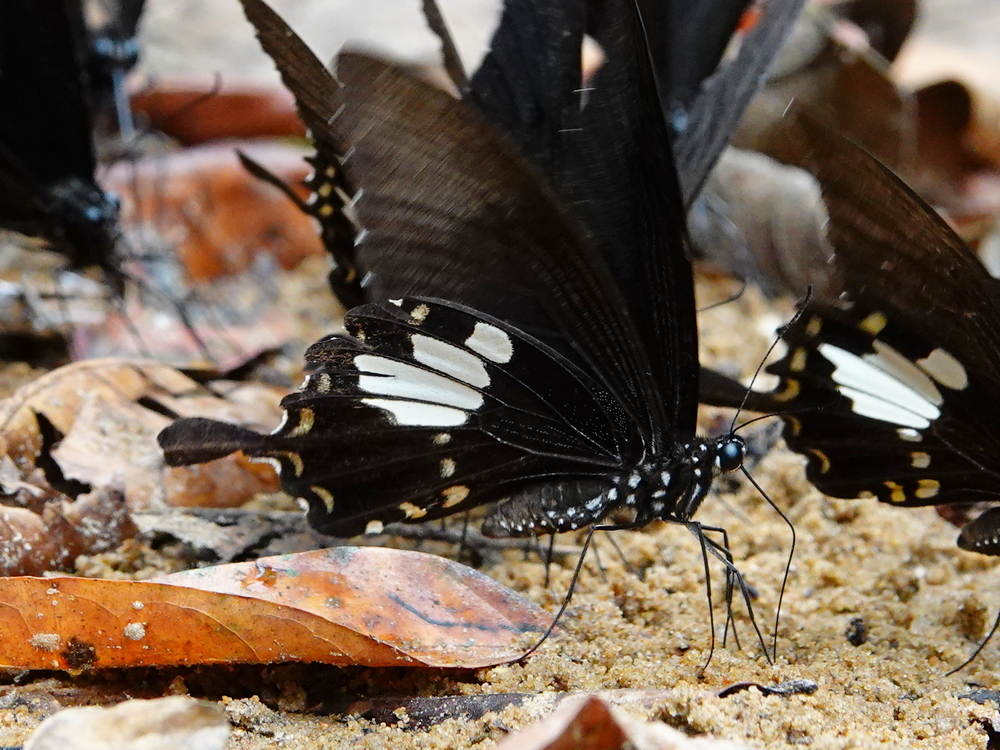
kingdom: Animalia
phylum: Arthropoda
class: Insecta
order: Lepidoptera
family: Papilionidae
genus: Atrophaneura
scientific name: Atrophaneura varuna
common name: Common batwing
